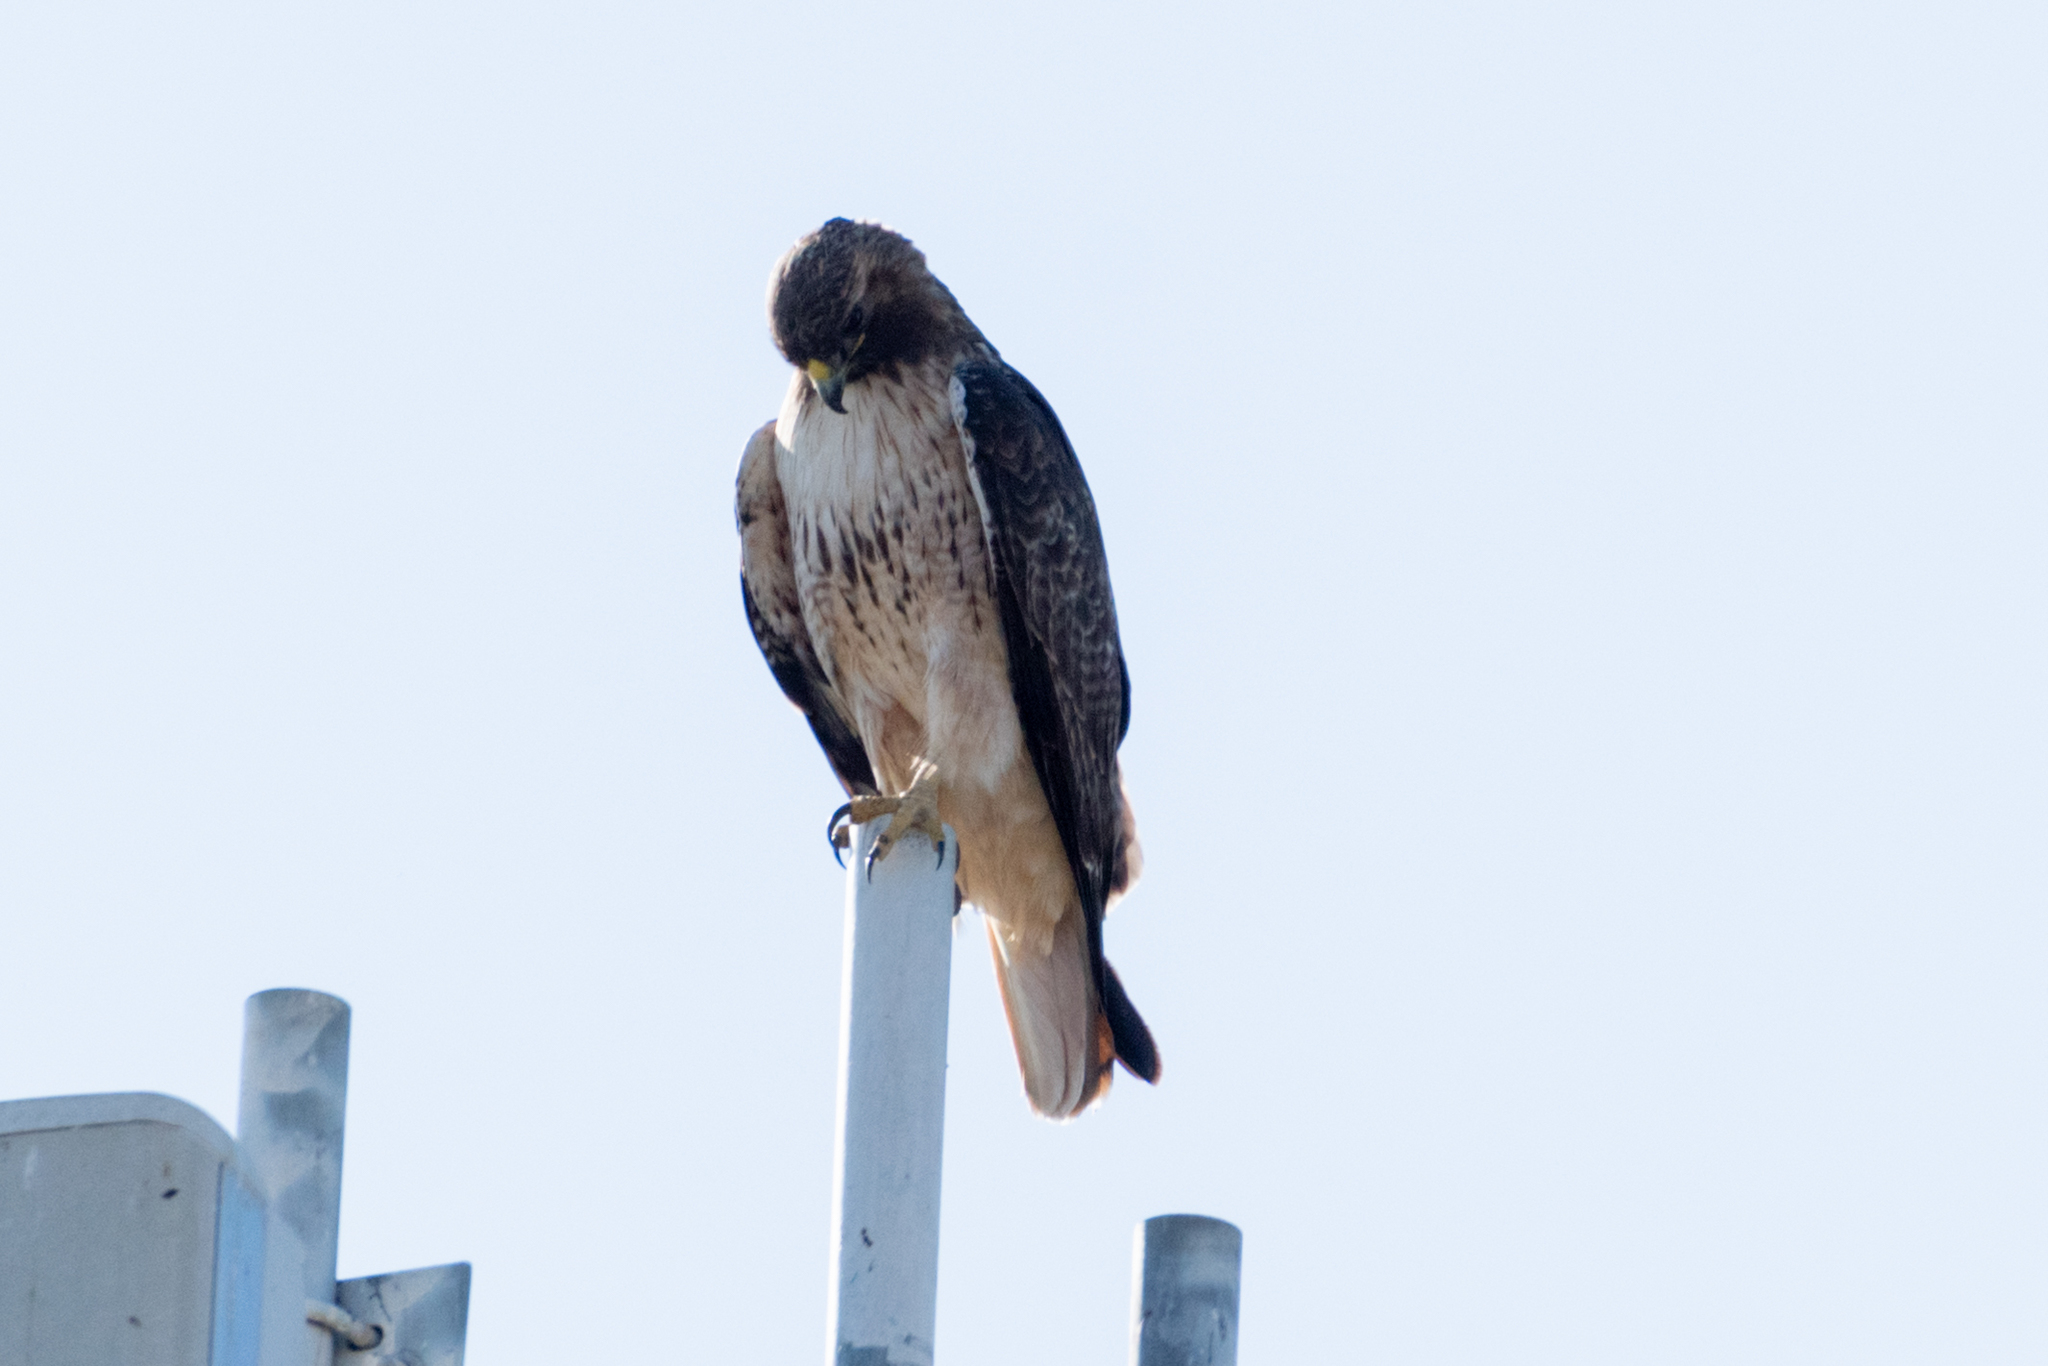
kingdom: Animalia
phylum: Chordata
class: Aves
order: Accipitriformes
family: Accipitridae
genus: Buteo
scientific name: Buteo jamaicensis
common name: Red-tailed hawk
